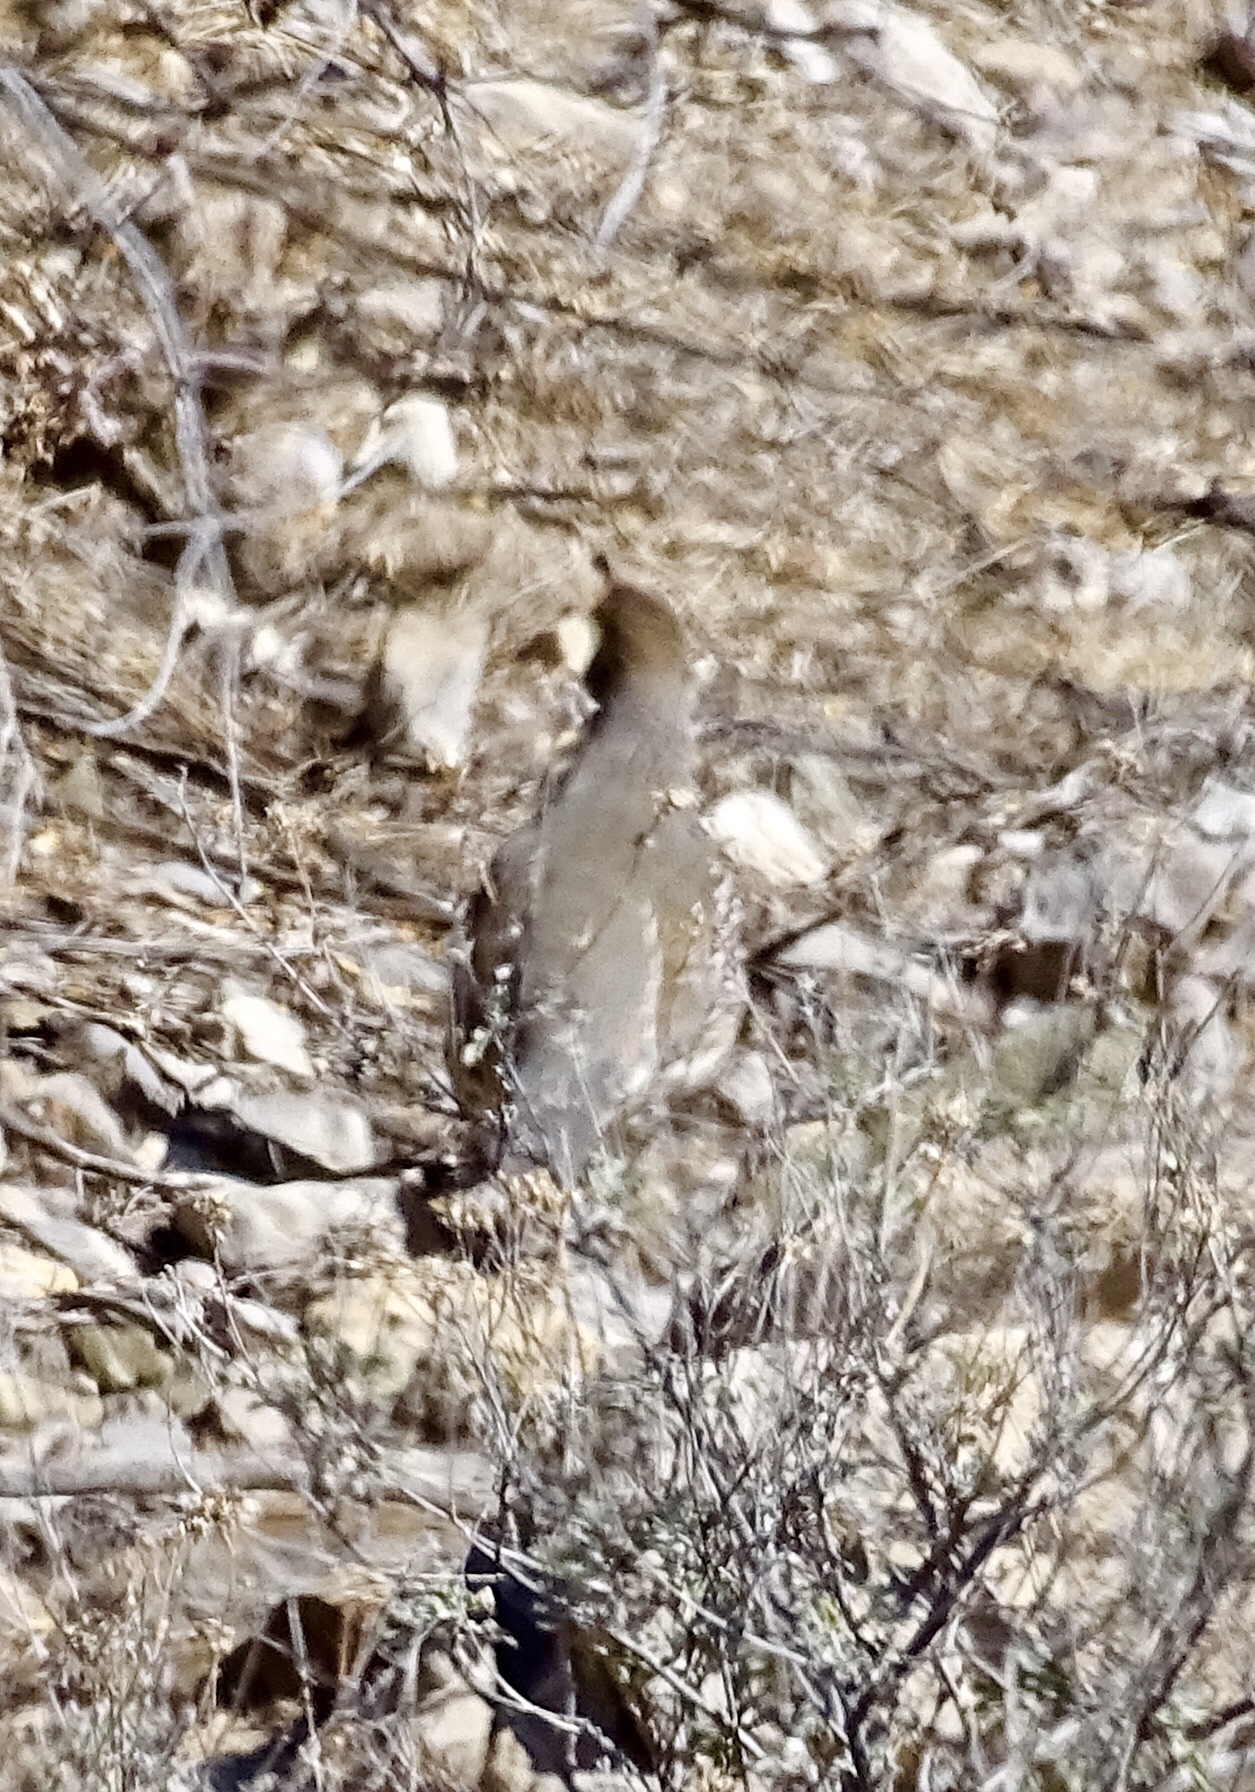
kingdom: Animalia
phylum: Chordata
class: Aves
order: Galliformes
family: Odontophoridae
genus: Callipepla
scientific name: Callipepla gambelii
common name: Gambel's quail
